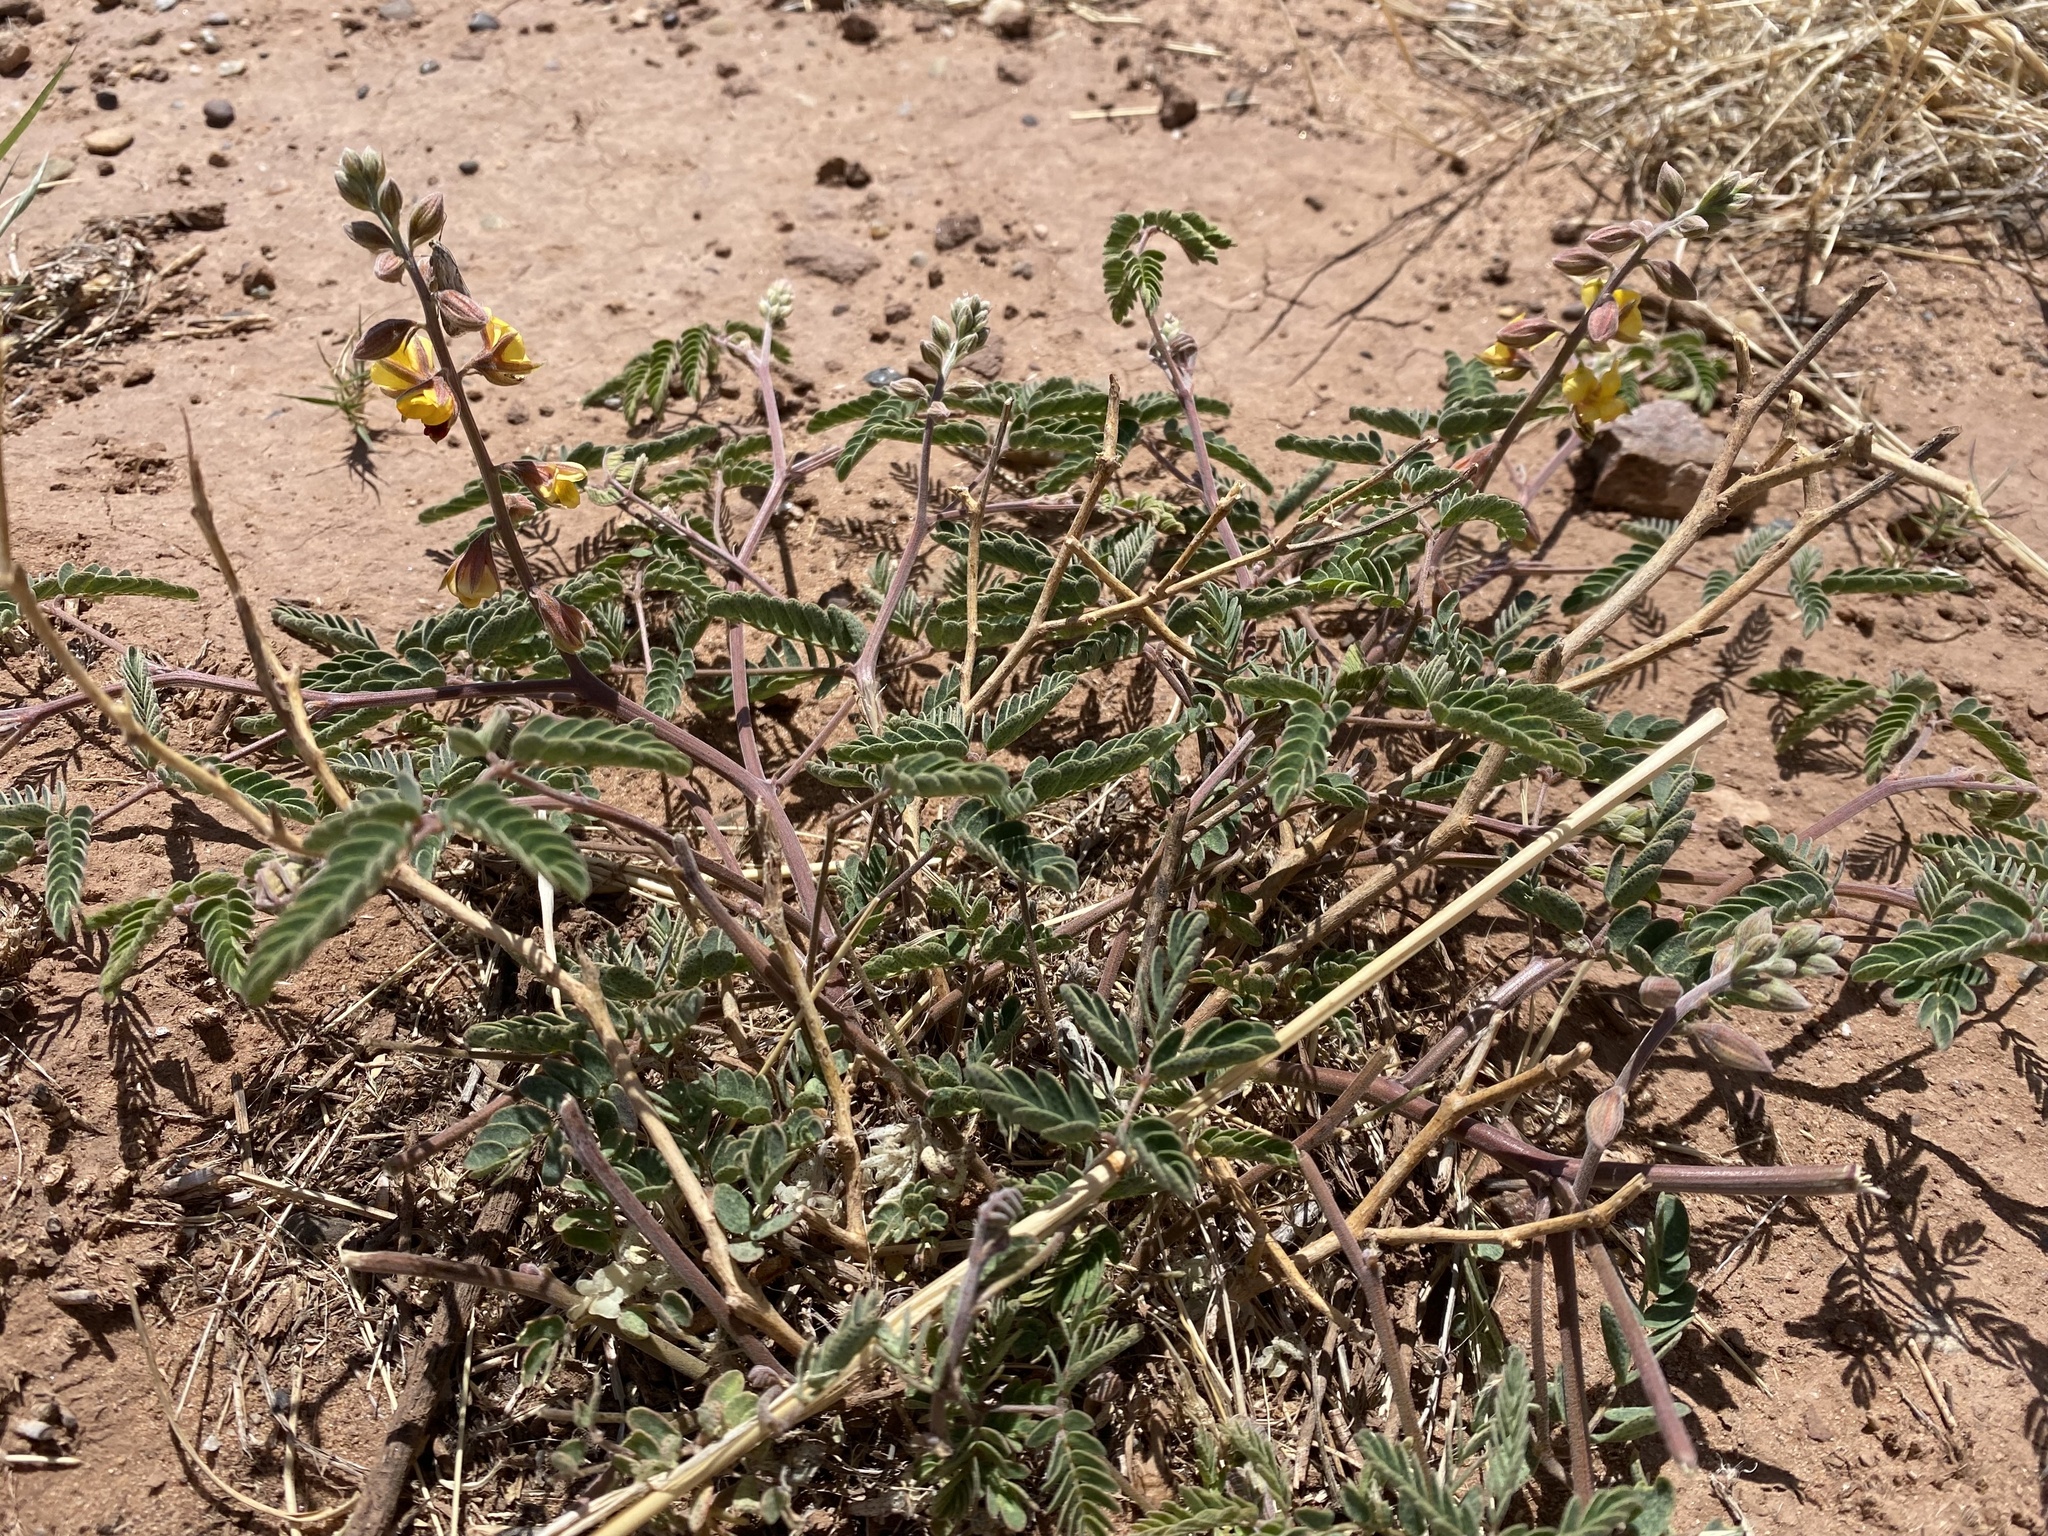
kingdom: Plantae
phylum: Tracheophyta
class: Magnoliopsida
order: Fabales
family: Fabaceae
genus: Pomaria
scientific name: Pomaria jamesii
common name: James' caesalpinia
